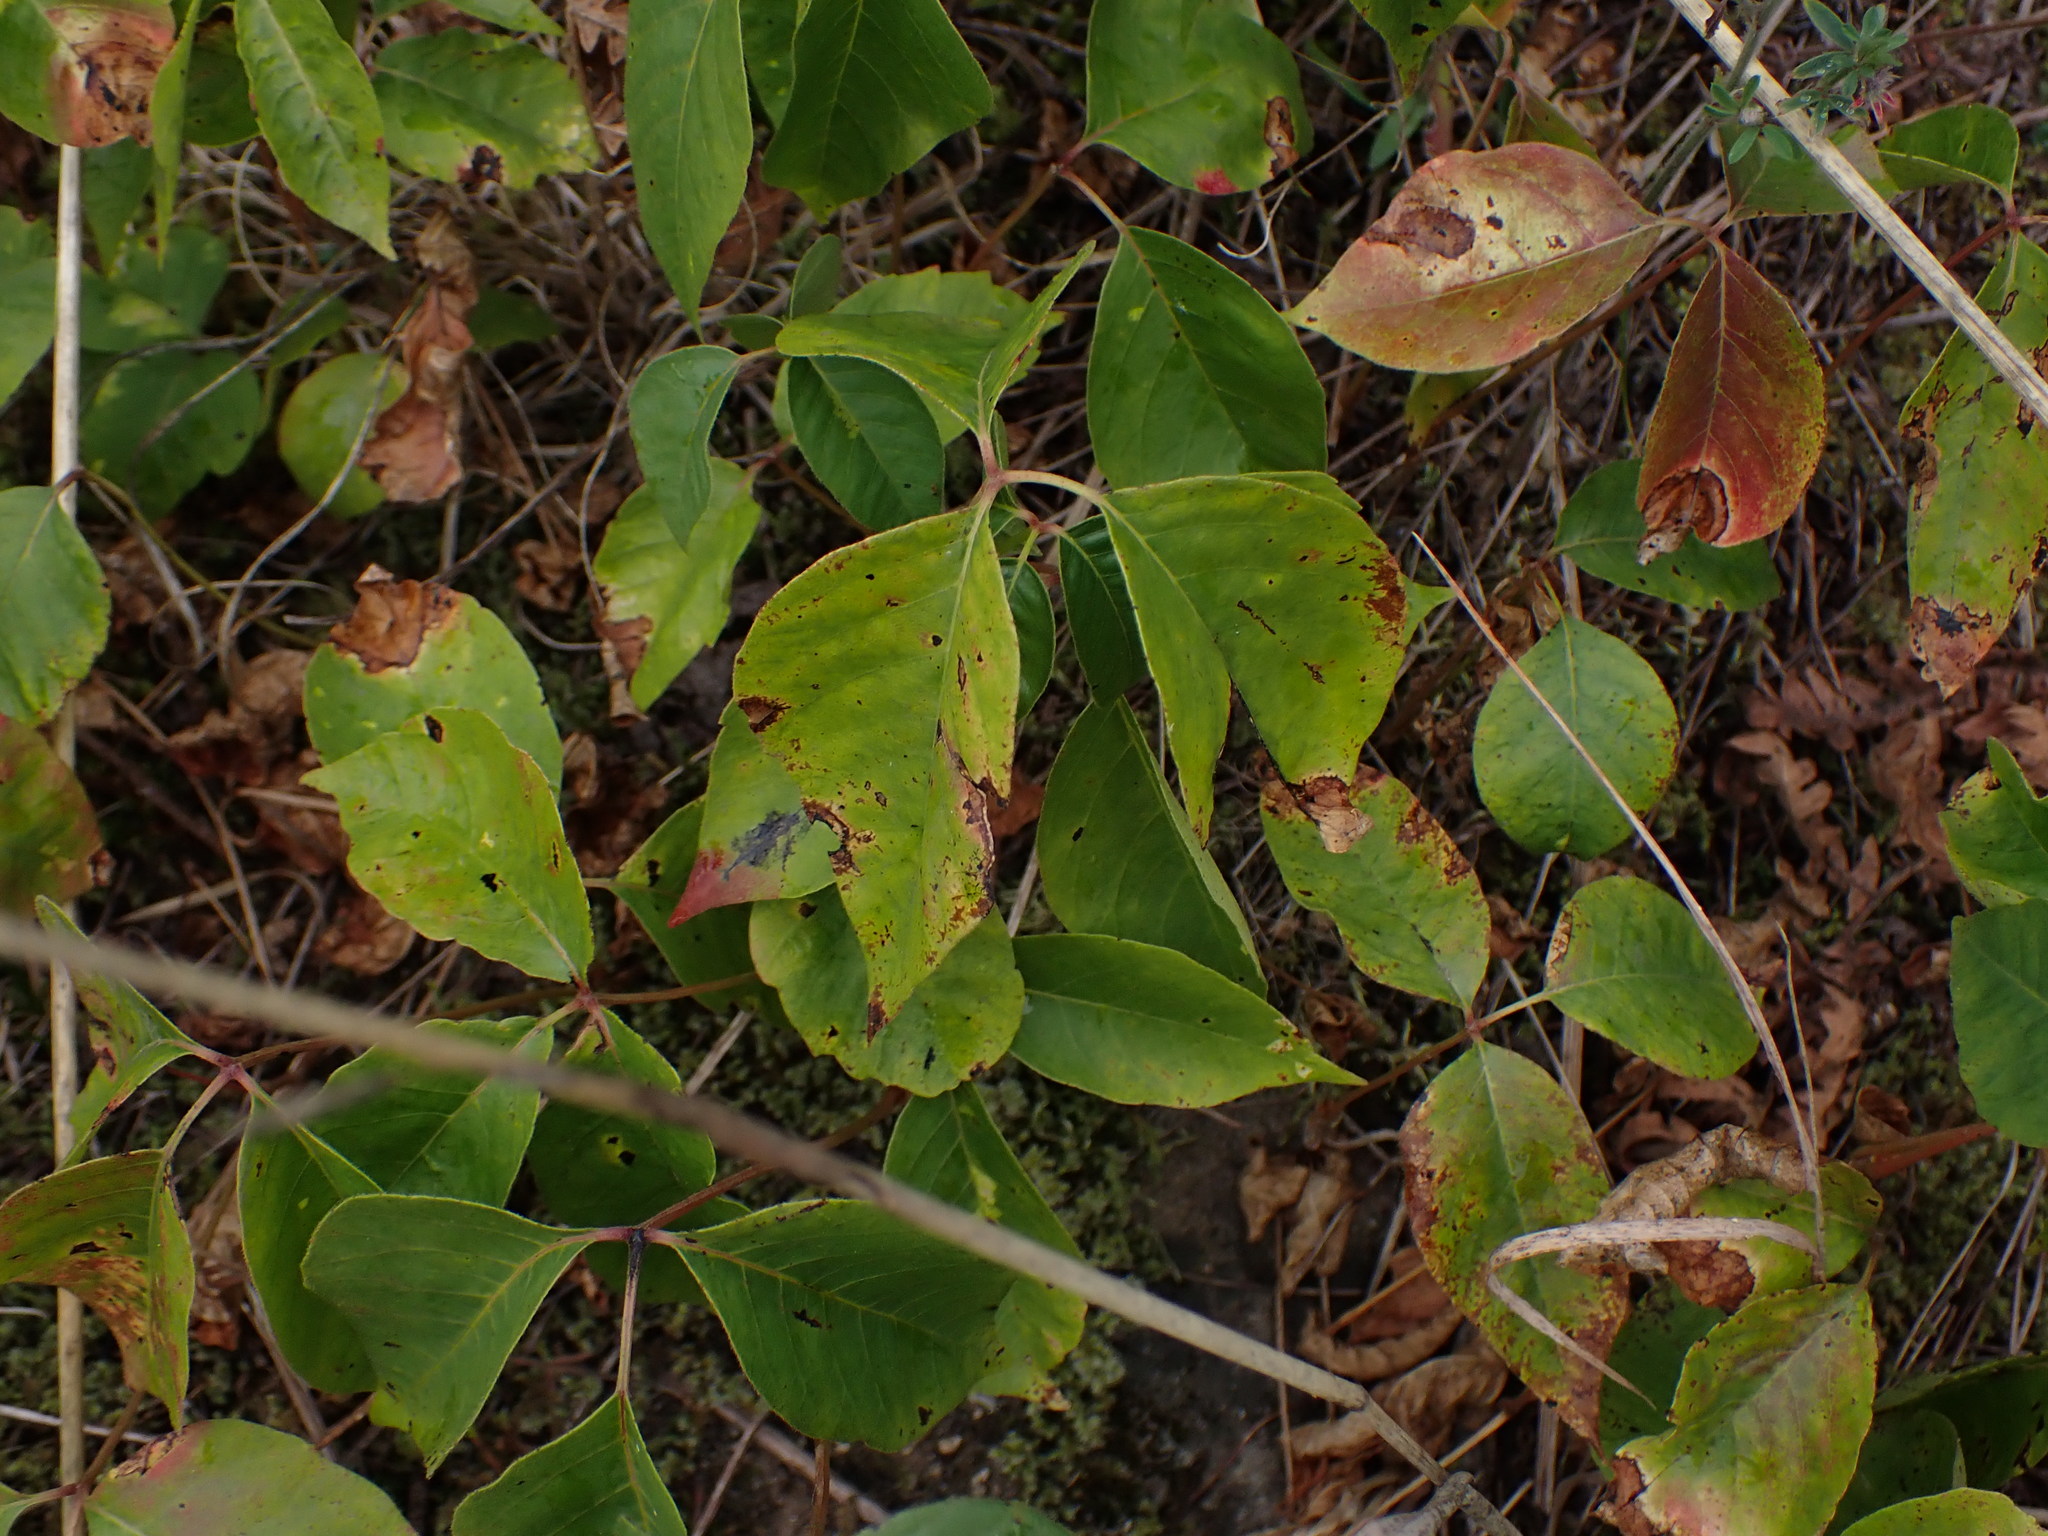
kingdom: Plantae
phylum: Tracheophyta
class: Magnoliopsida
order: Sapindales
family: Anacardiaceae
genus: Toxicodendron
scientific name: Toxicodendron rydbergii
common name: Rydberg's poison-ivy
